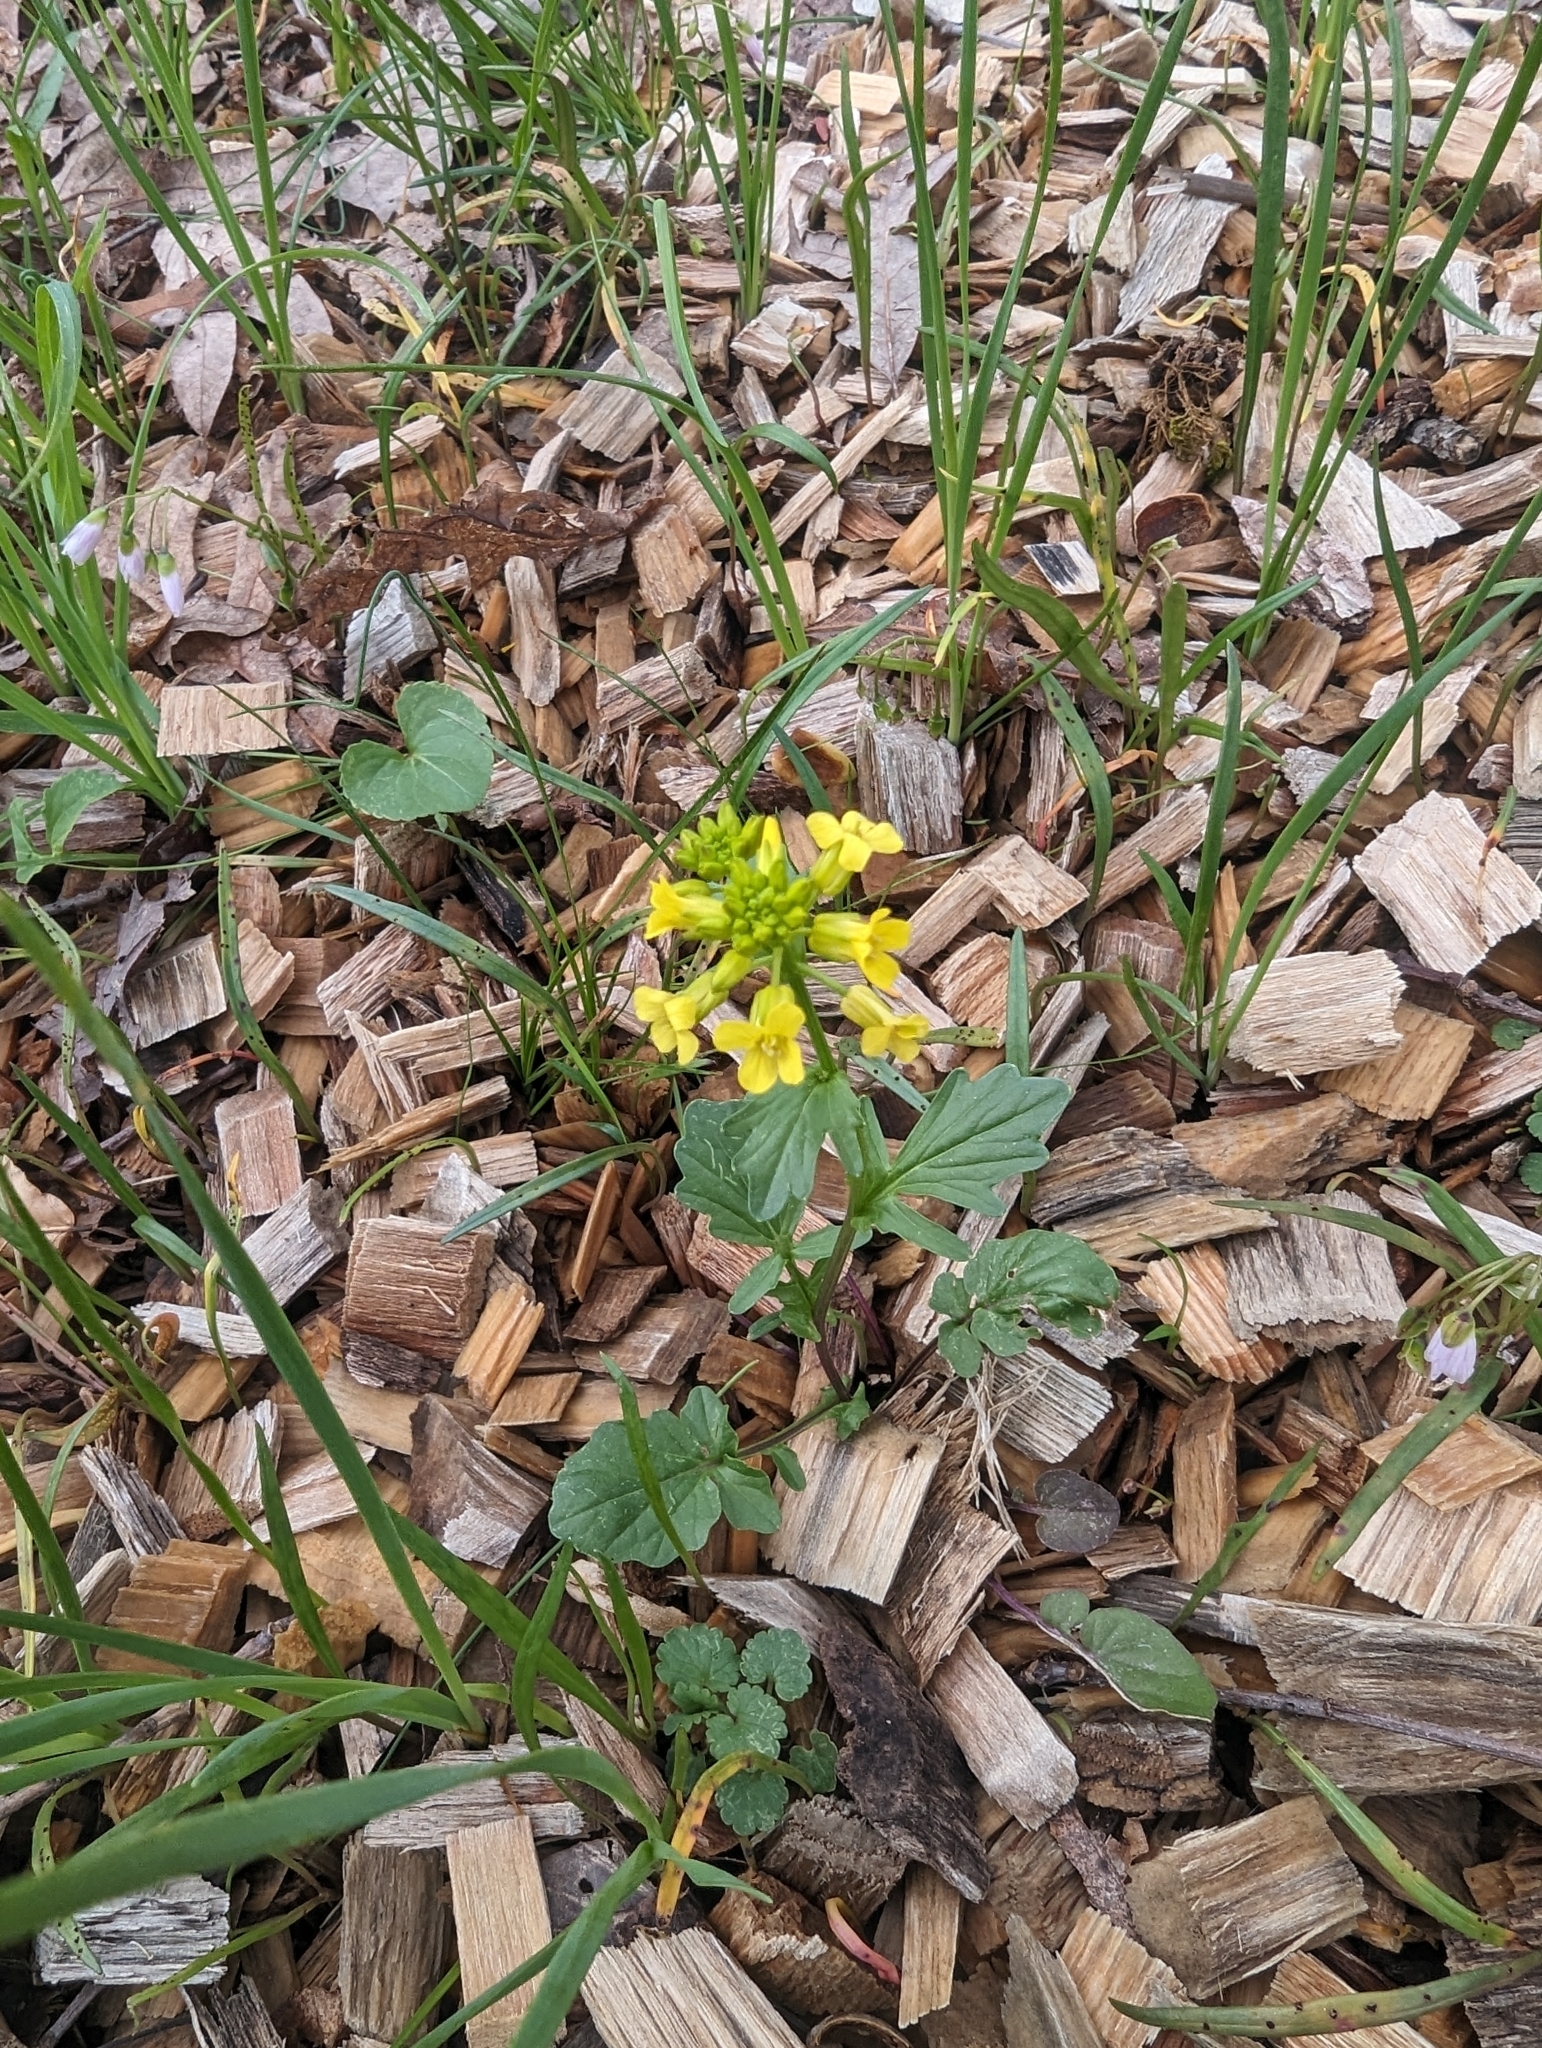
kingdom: Plantae
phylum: Tracheophyta
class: Magnoliopsida
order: Brassicales
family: Brassicaceae
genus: Barbarea
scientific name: Barbarea vulgaris
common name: Cressy-greens
